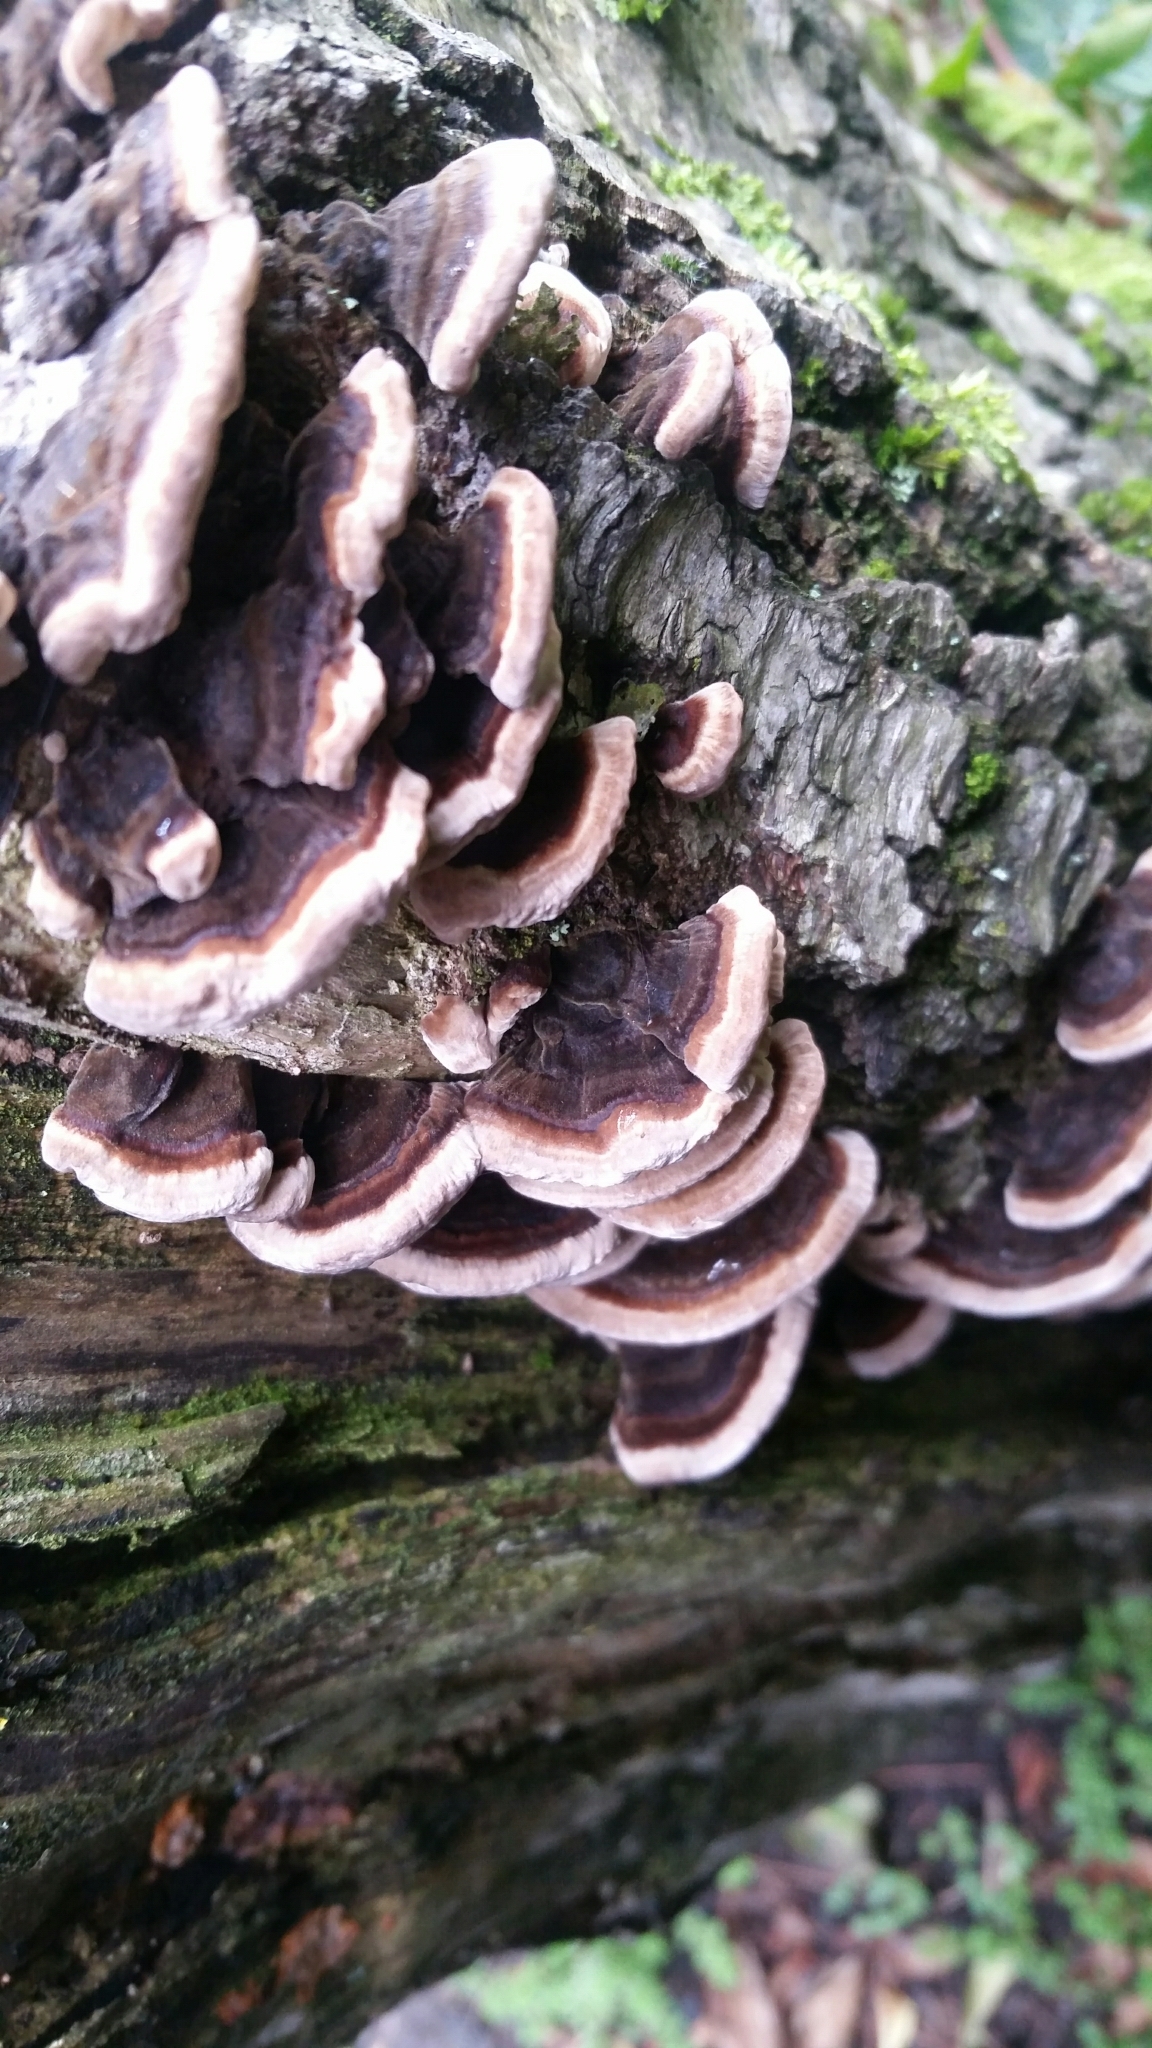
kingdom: Fungi
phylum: Basidiomycota
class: Agaricomycetes
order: Polyporales
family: Phanerochaetaceae
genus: Bjerkandera
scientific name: Bjerkandera adusta
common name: Smoky bracket
